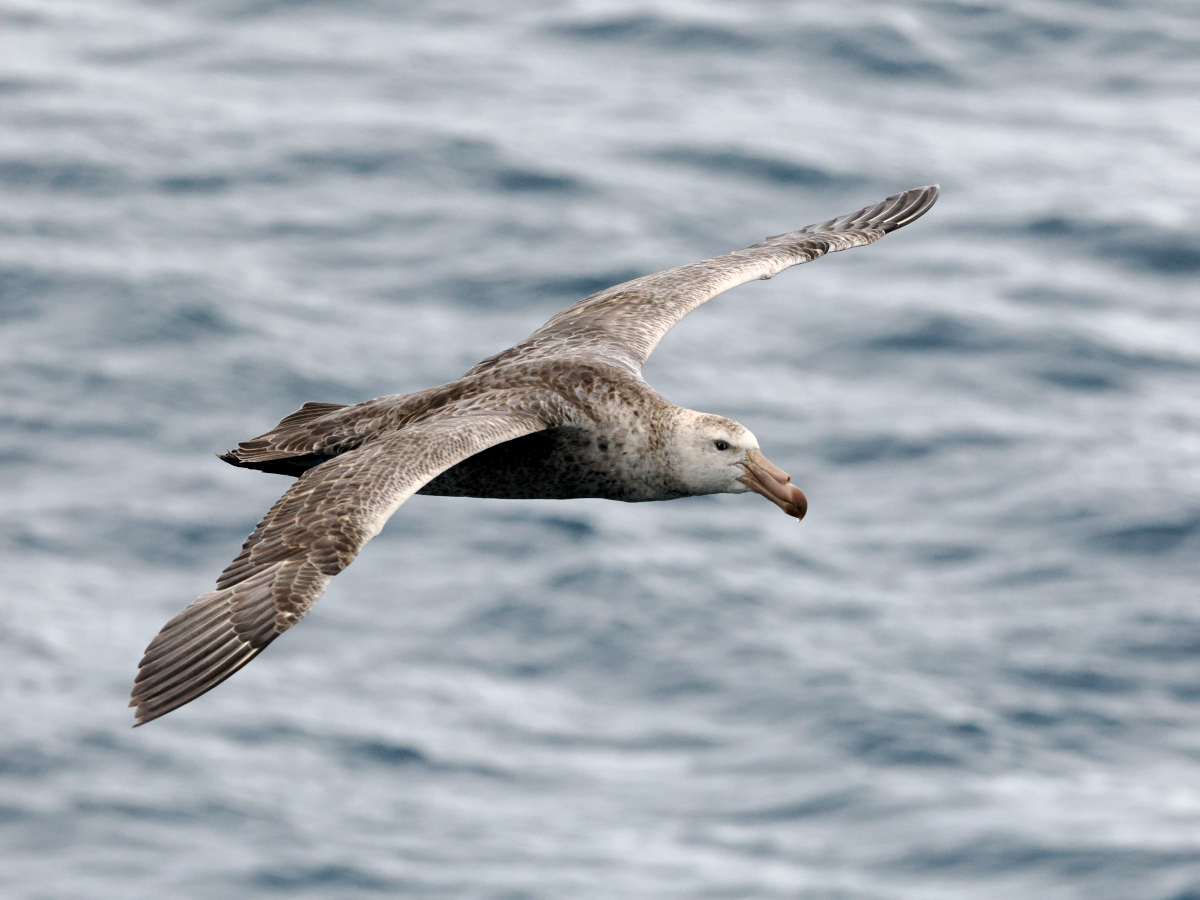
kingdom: Animalia
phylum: Chordata
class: Aves
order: Procellariiformes
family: Procellariidae
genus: Macronectes
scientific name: Macronectes halli
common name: Northern giant petrel
